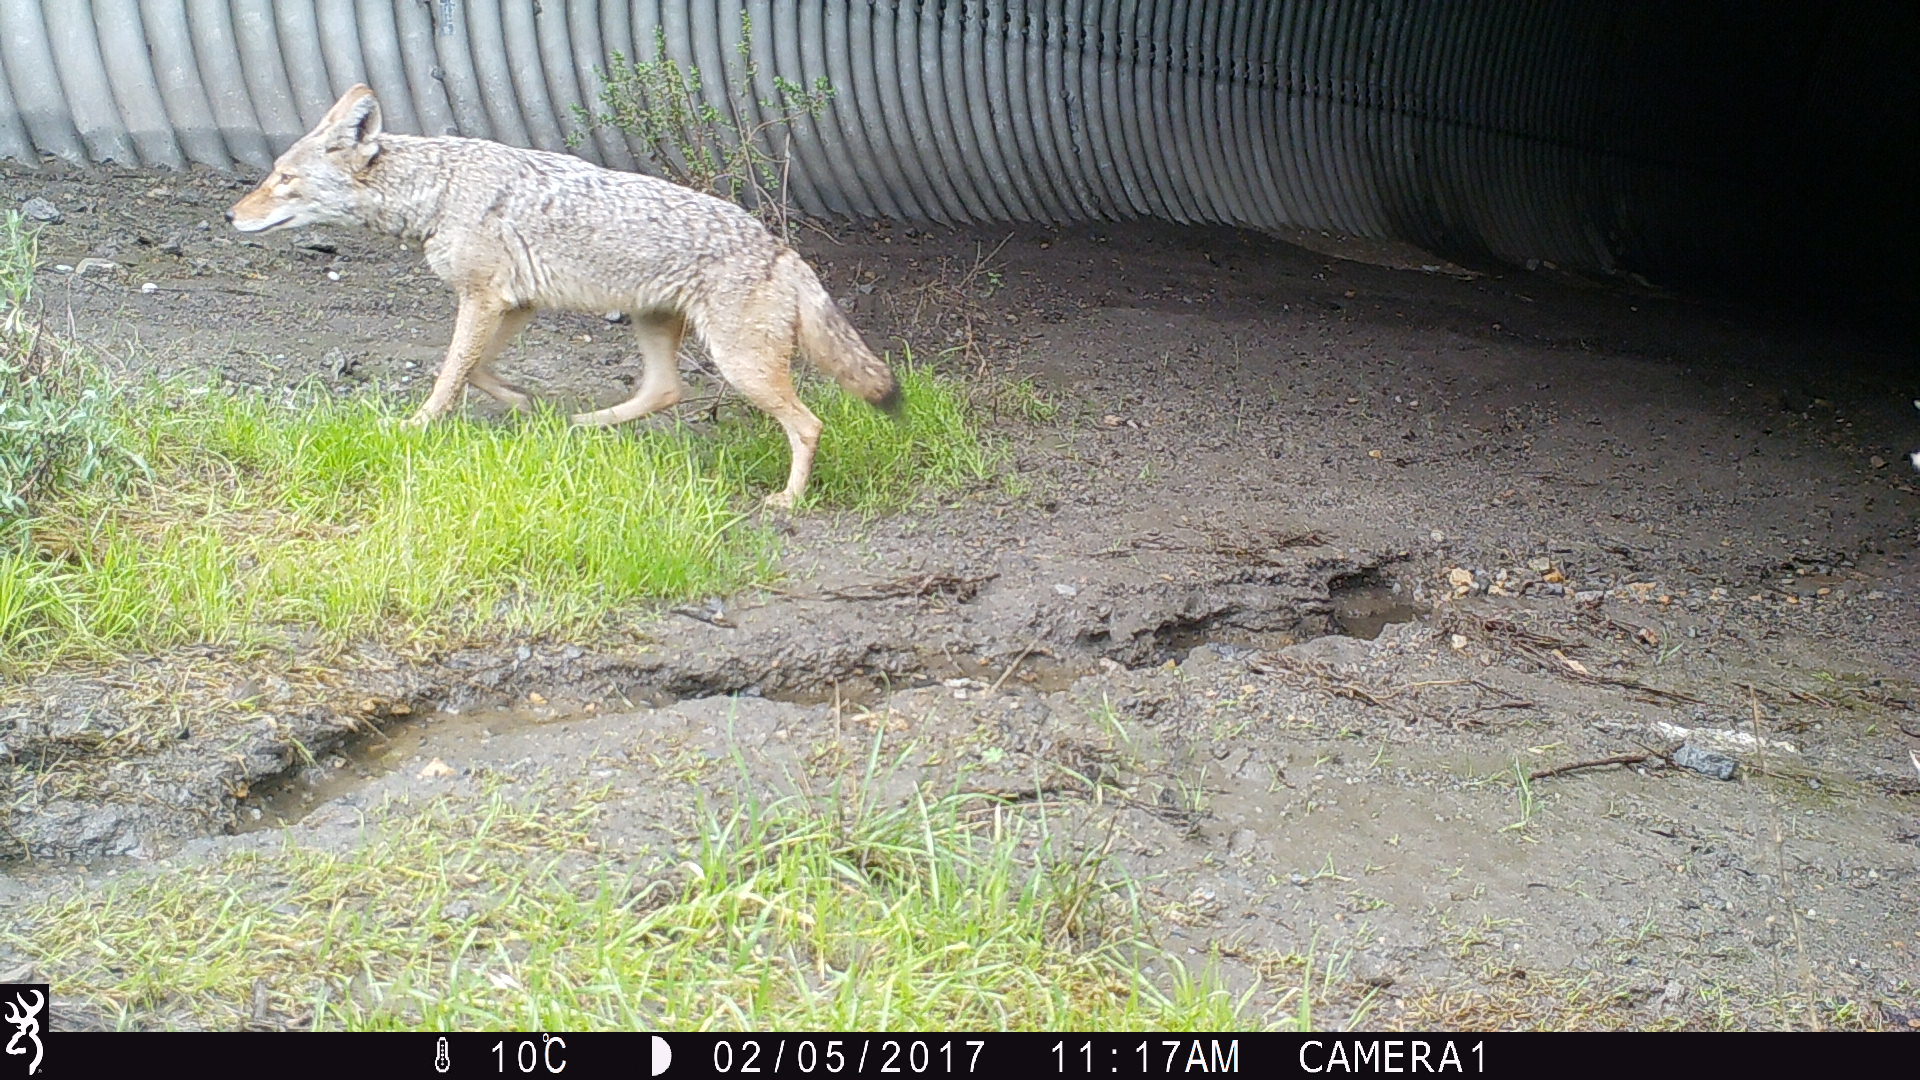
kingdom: Animalia
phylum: Chordata
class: Mammalia
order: Carnivora
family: Canidae
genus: Canis
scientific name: Canis latrans
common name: Coyote
